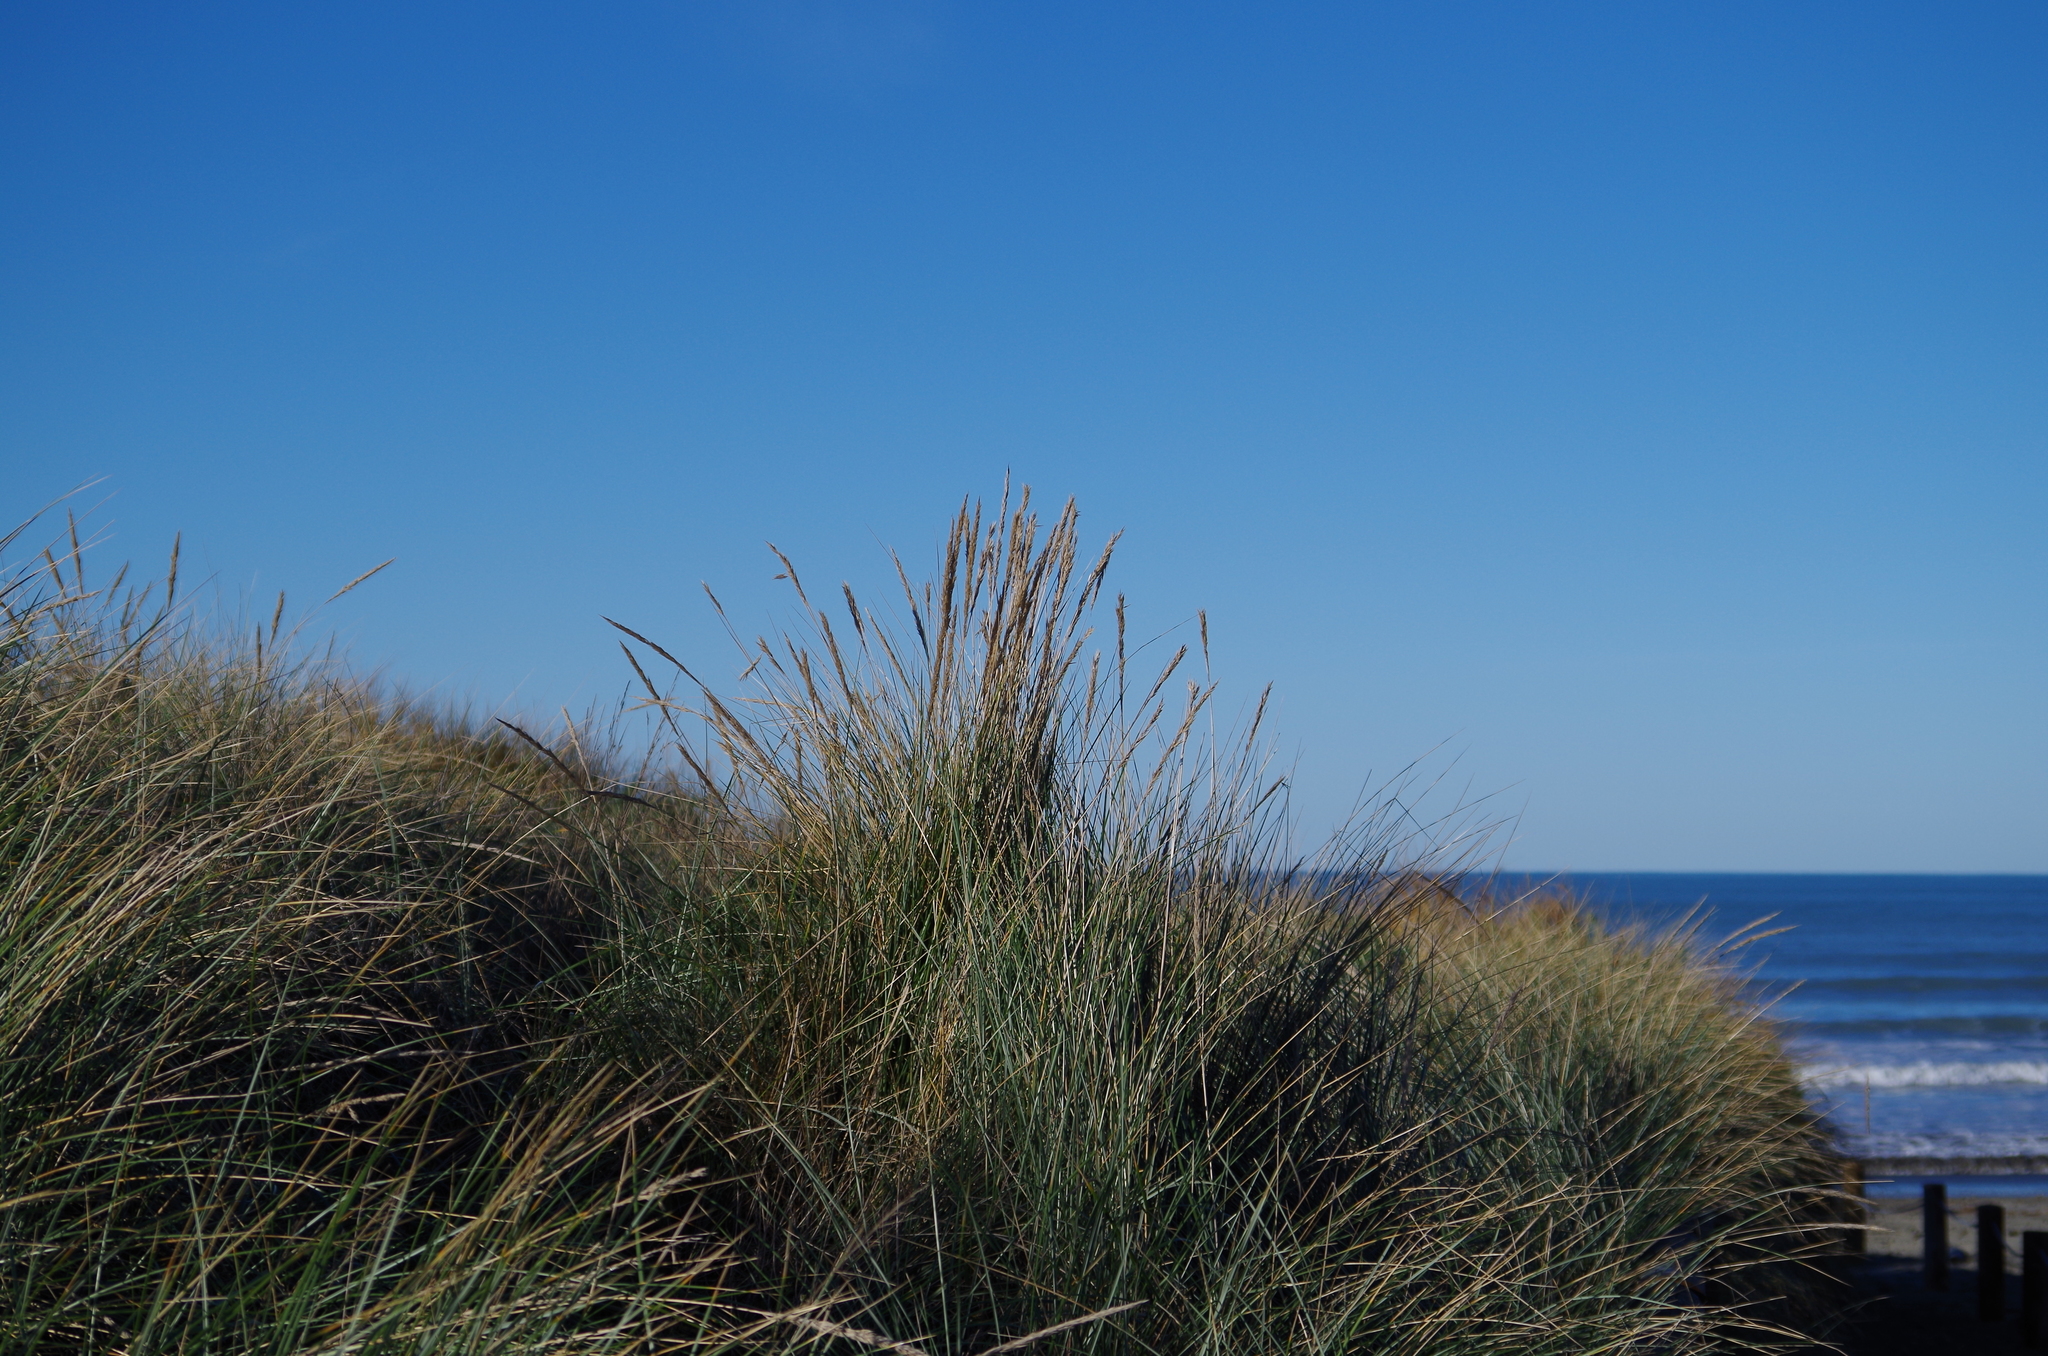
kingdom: Plantae
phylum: Tracheophyta
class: Liliopsida
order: Poales
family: Poaceae
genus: Calamagrostis
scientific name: Calamagrostis arenaria
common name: European beachgrass
